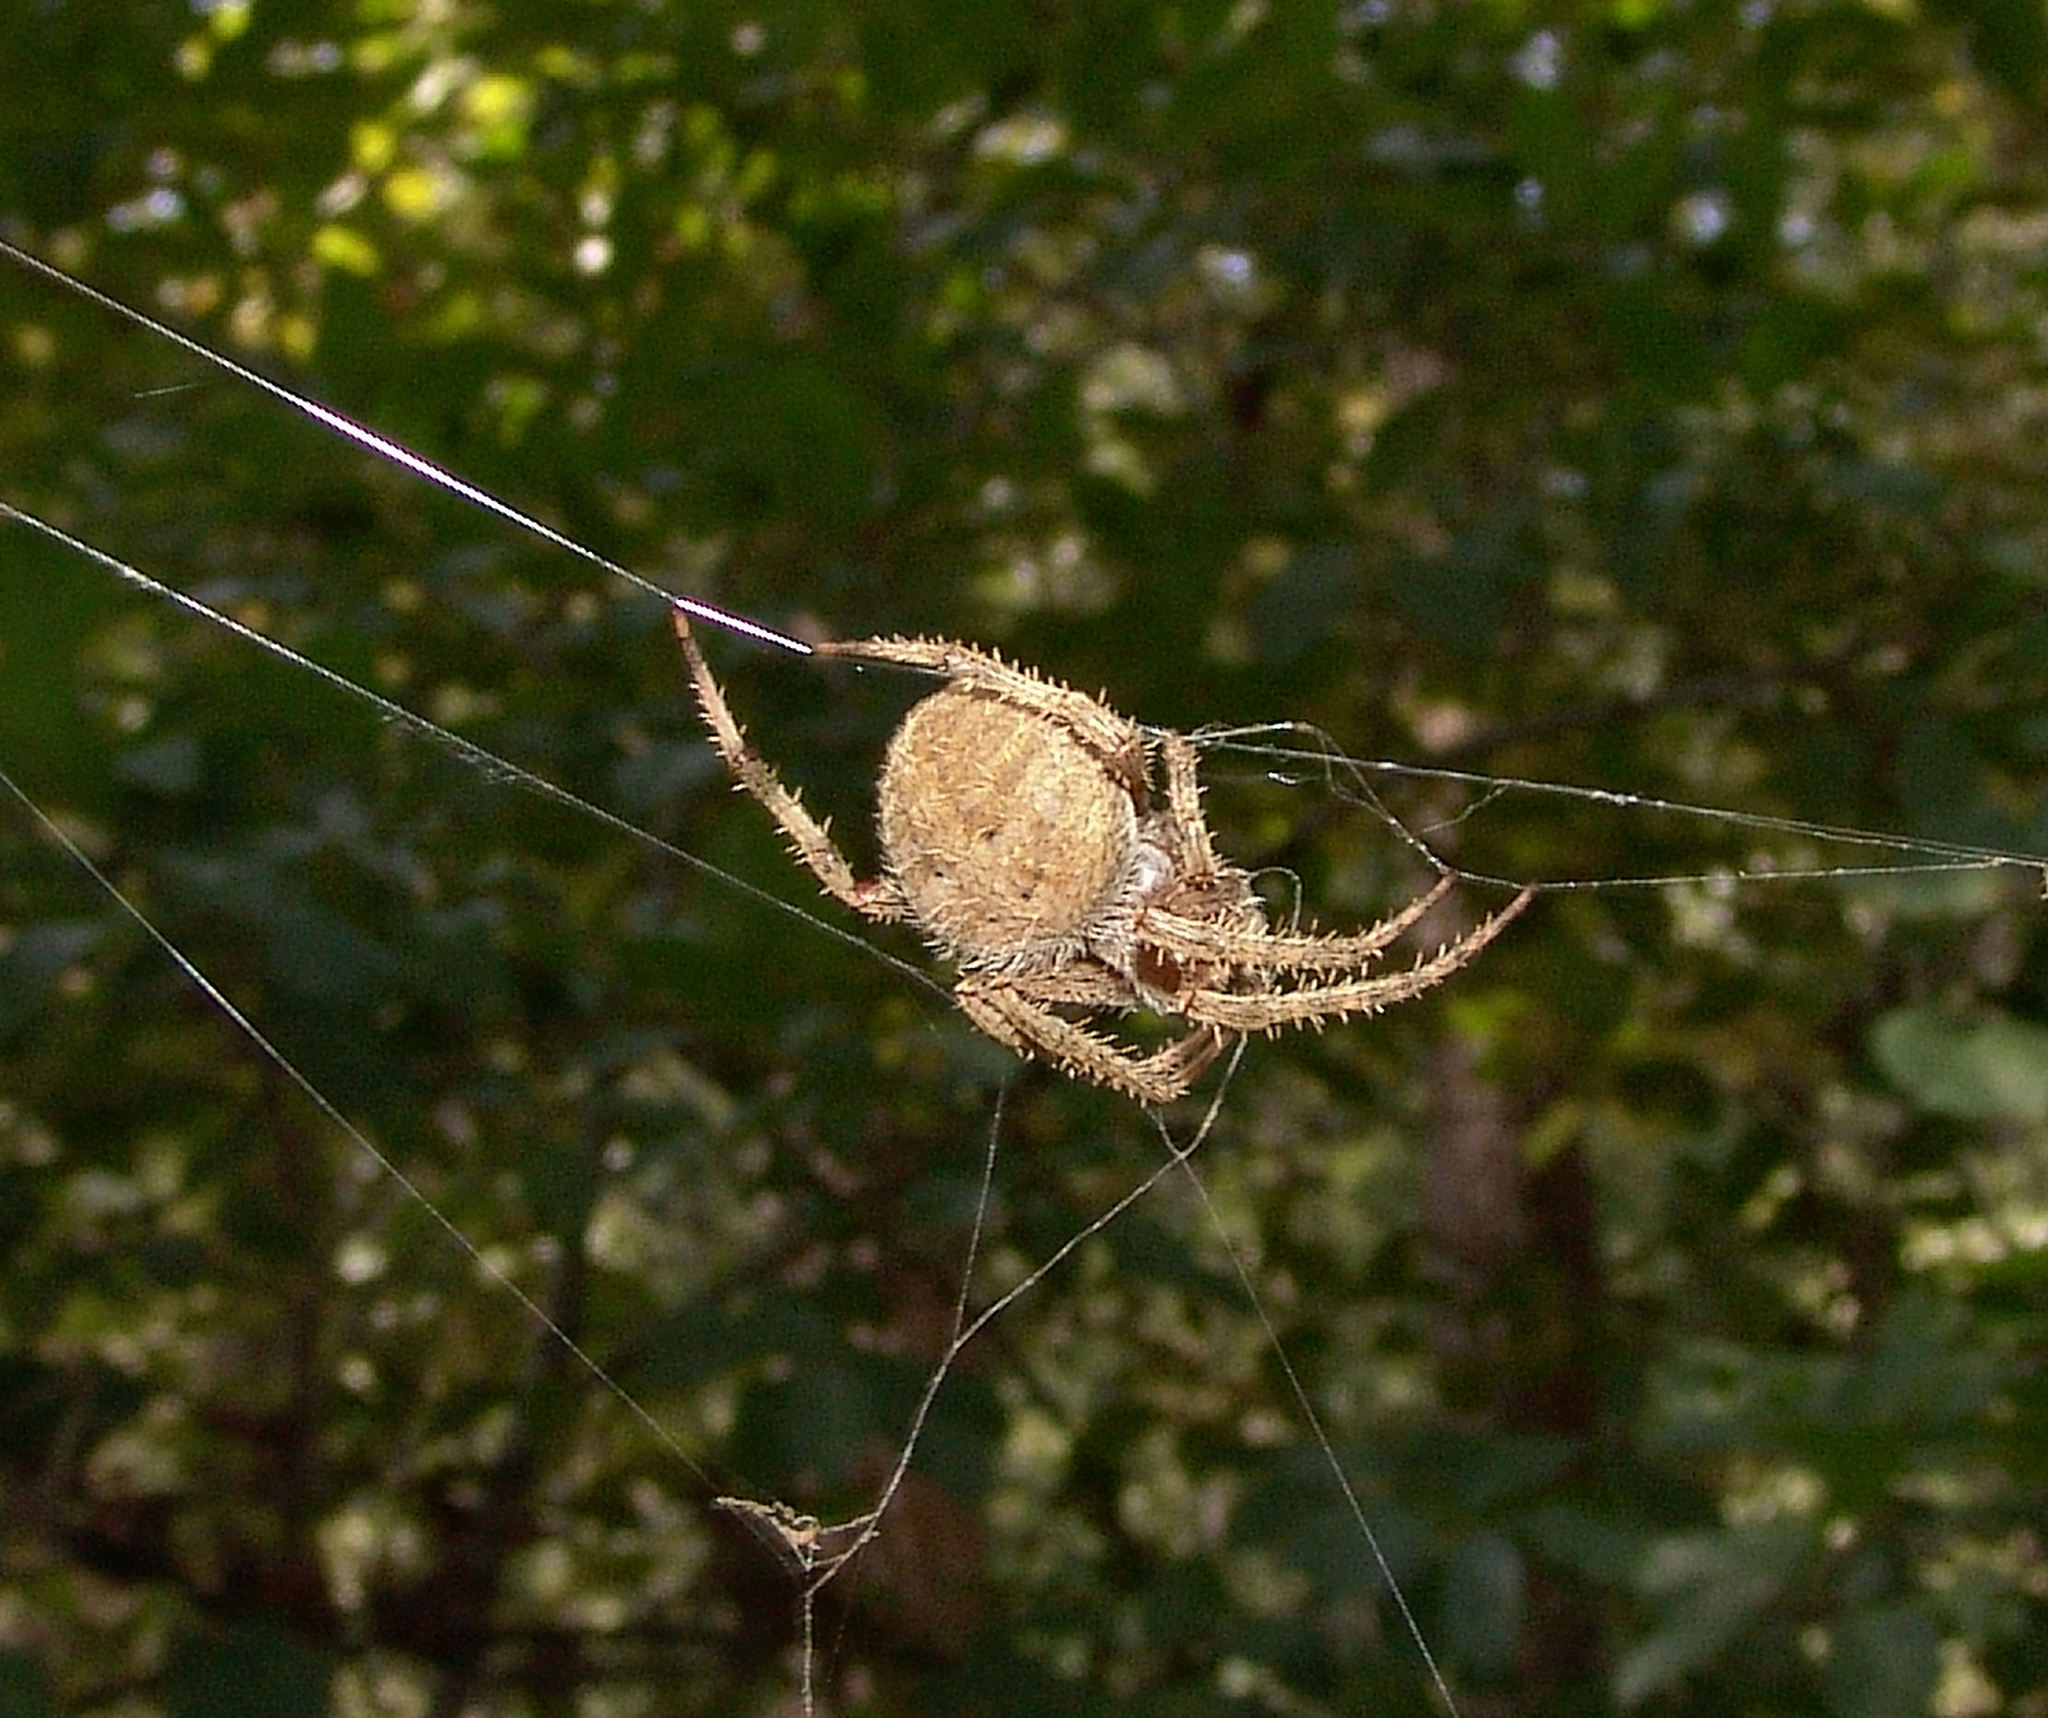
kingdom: Animalia
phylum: Arthropoda
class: Arachnida
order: Araneae
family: Araneidae
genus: Neoscona
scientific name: Neoscona crucifera
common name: Spotted orbweaver
